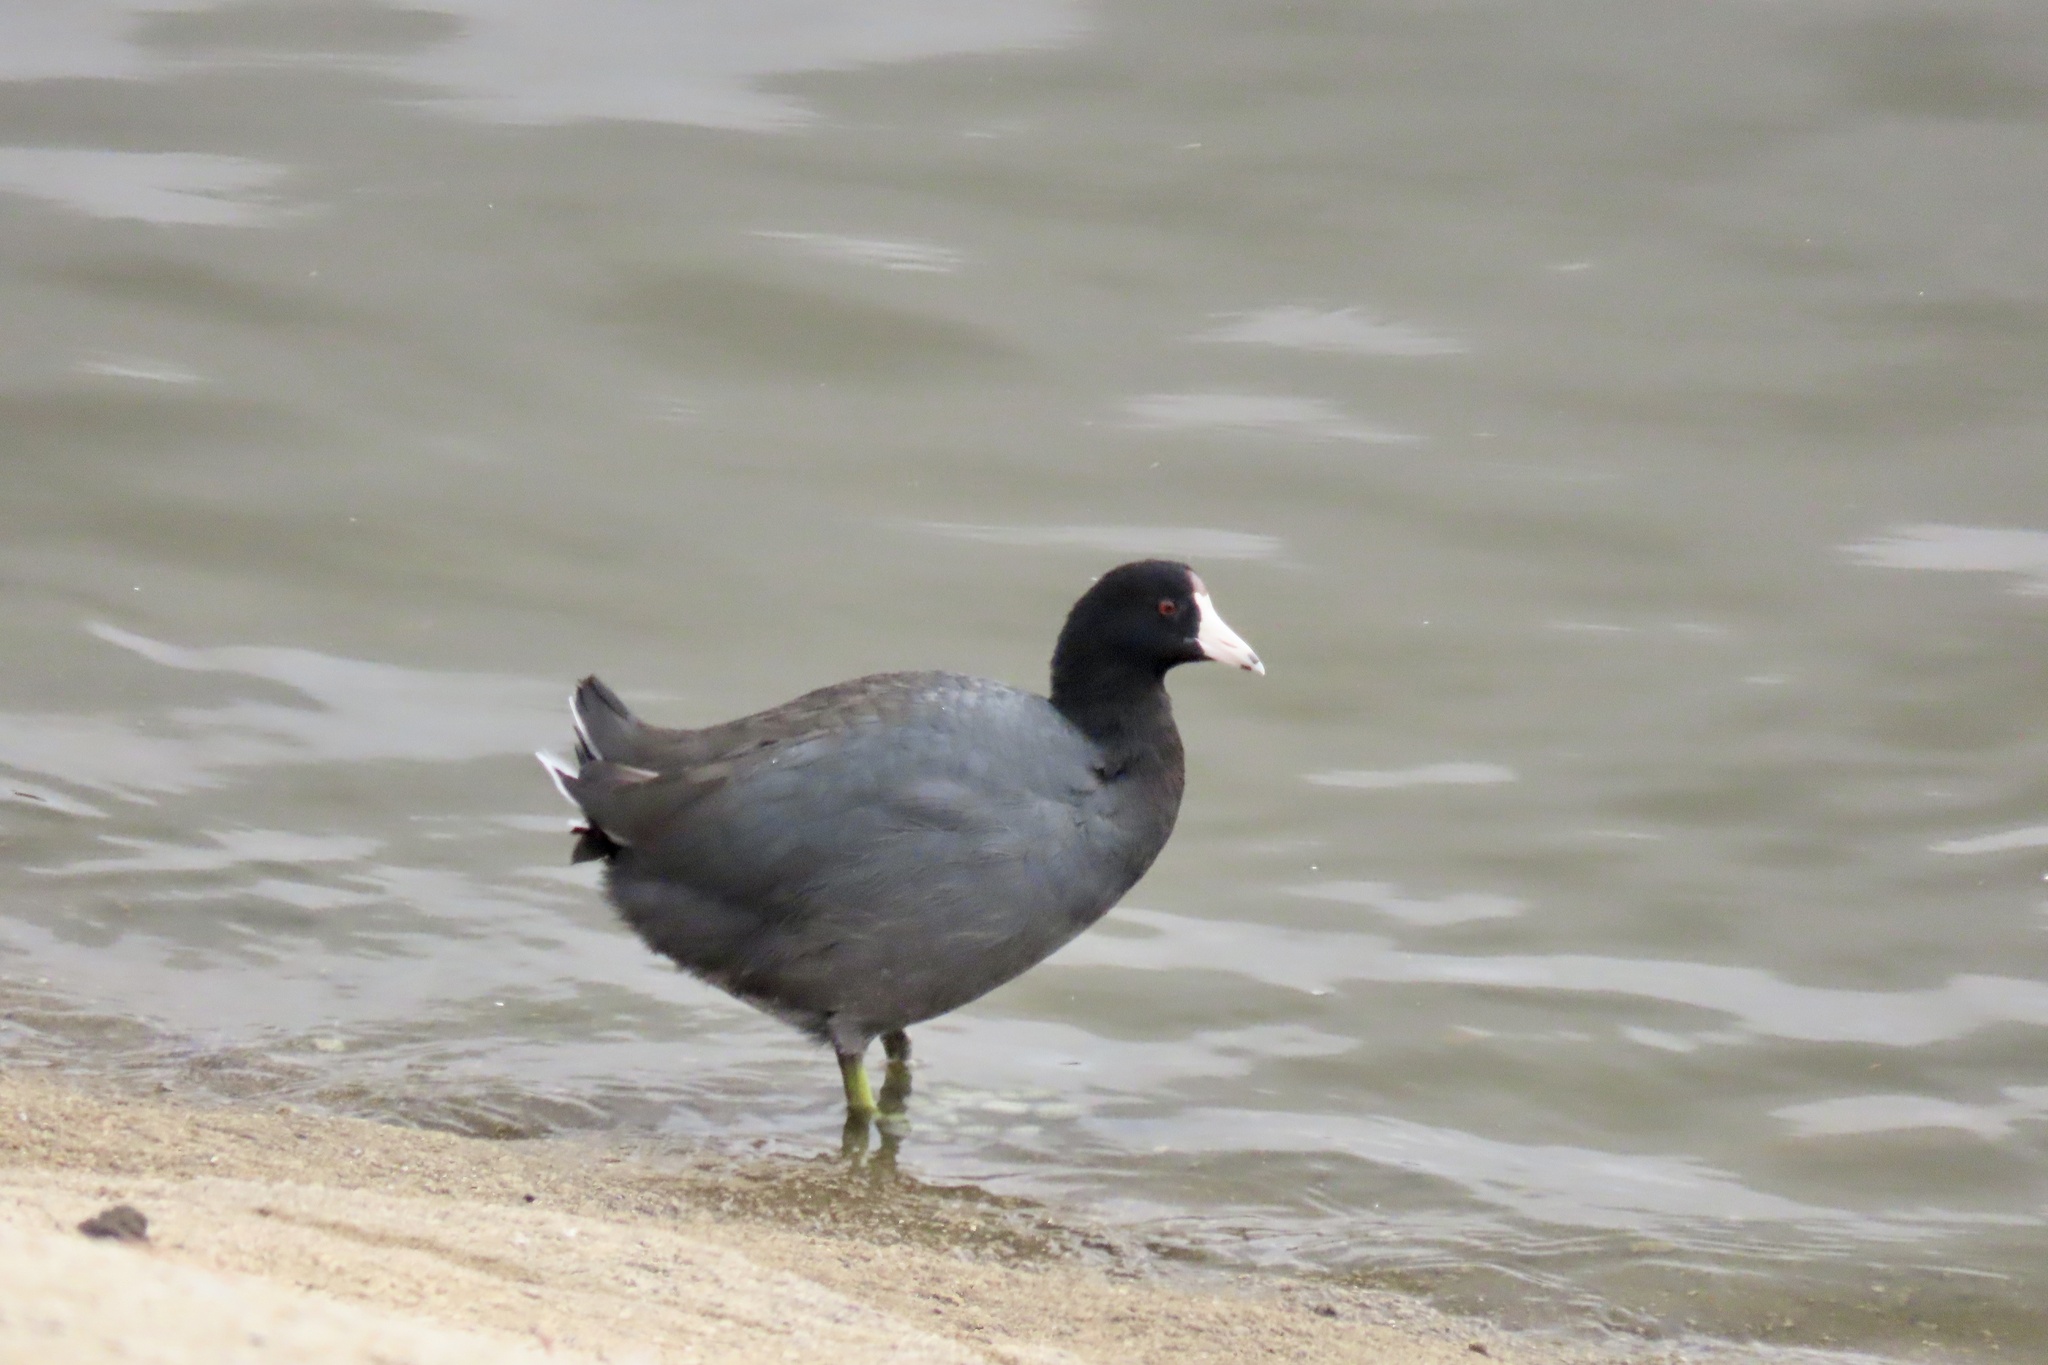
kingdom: Animalia
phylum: Chordata
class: Aves
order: Gruiformes
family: Rallidae
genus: Fulica
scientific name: Fulica americana
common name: American coot
